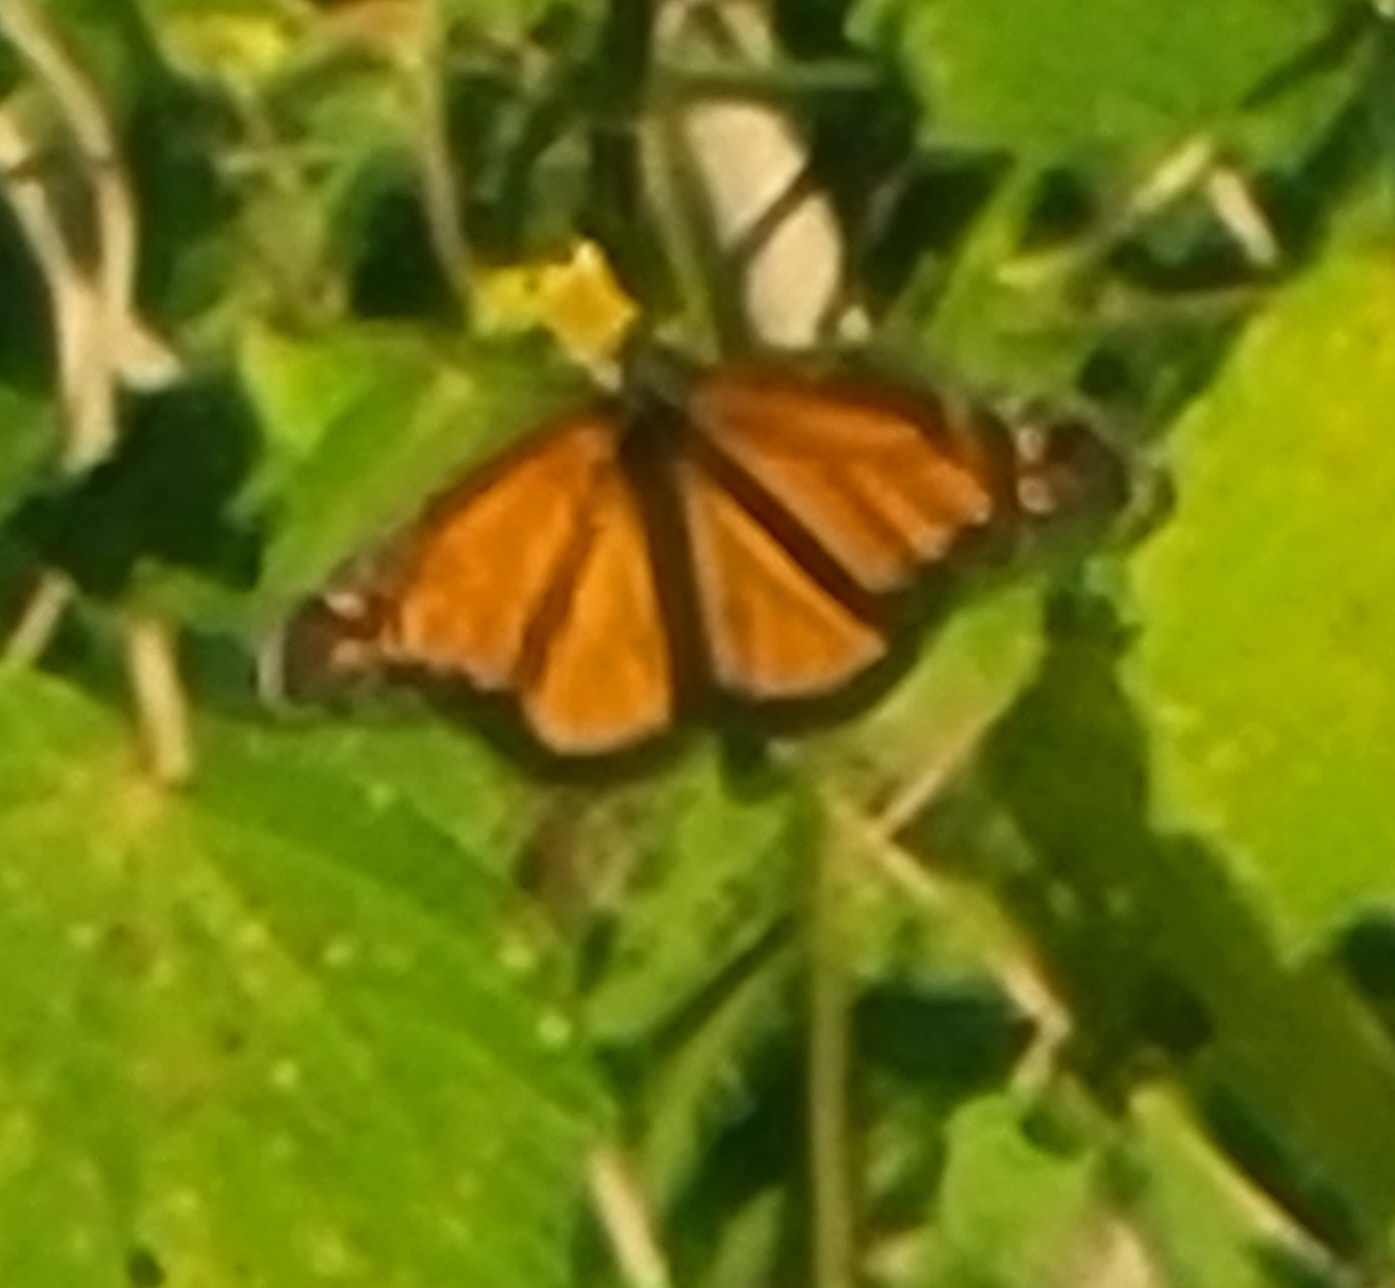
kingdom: Animalia
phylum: Arthropoda
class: Insecta
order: Lepidoptera
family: Nymphalidae
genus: Danaus
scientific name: Danaus plexippus
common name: Monarch
